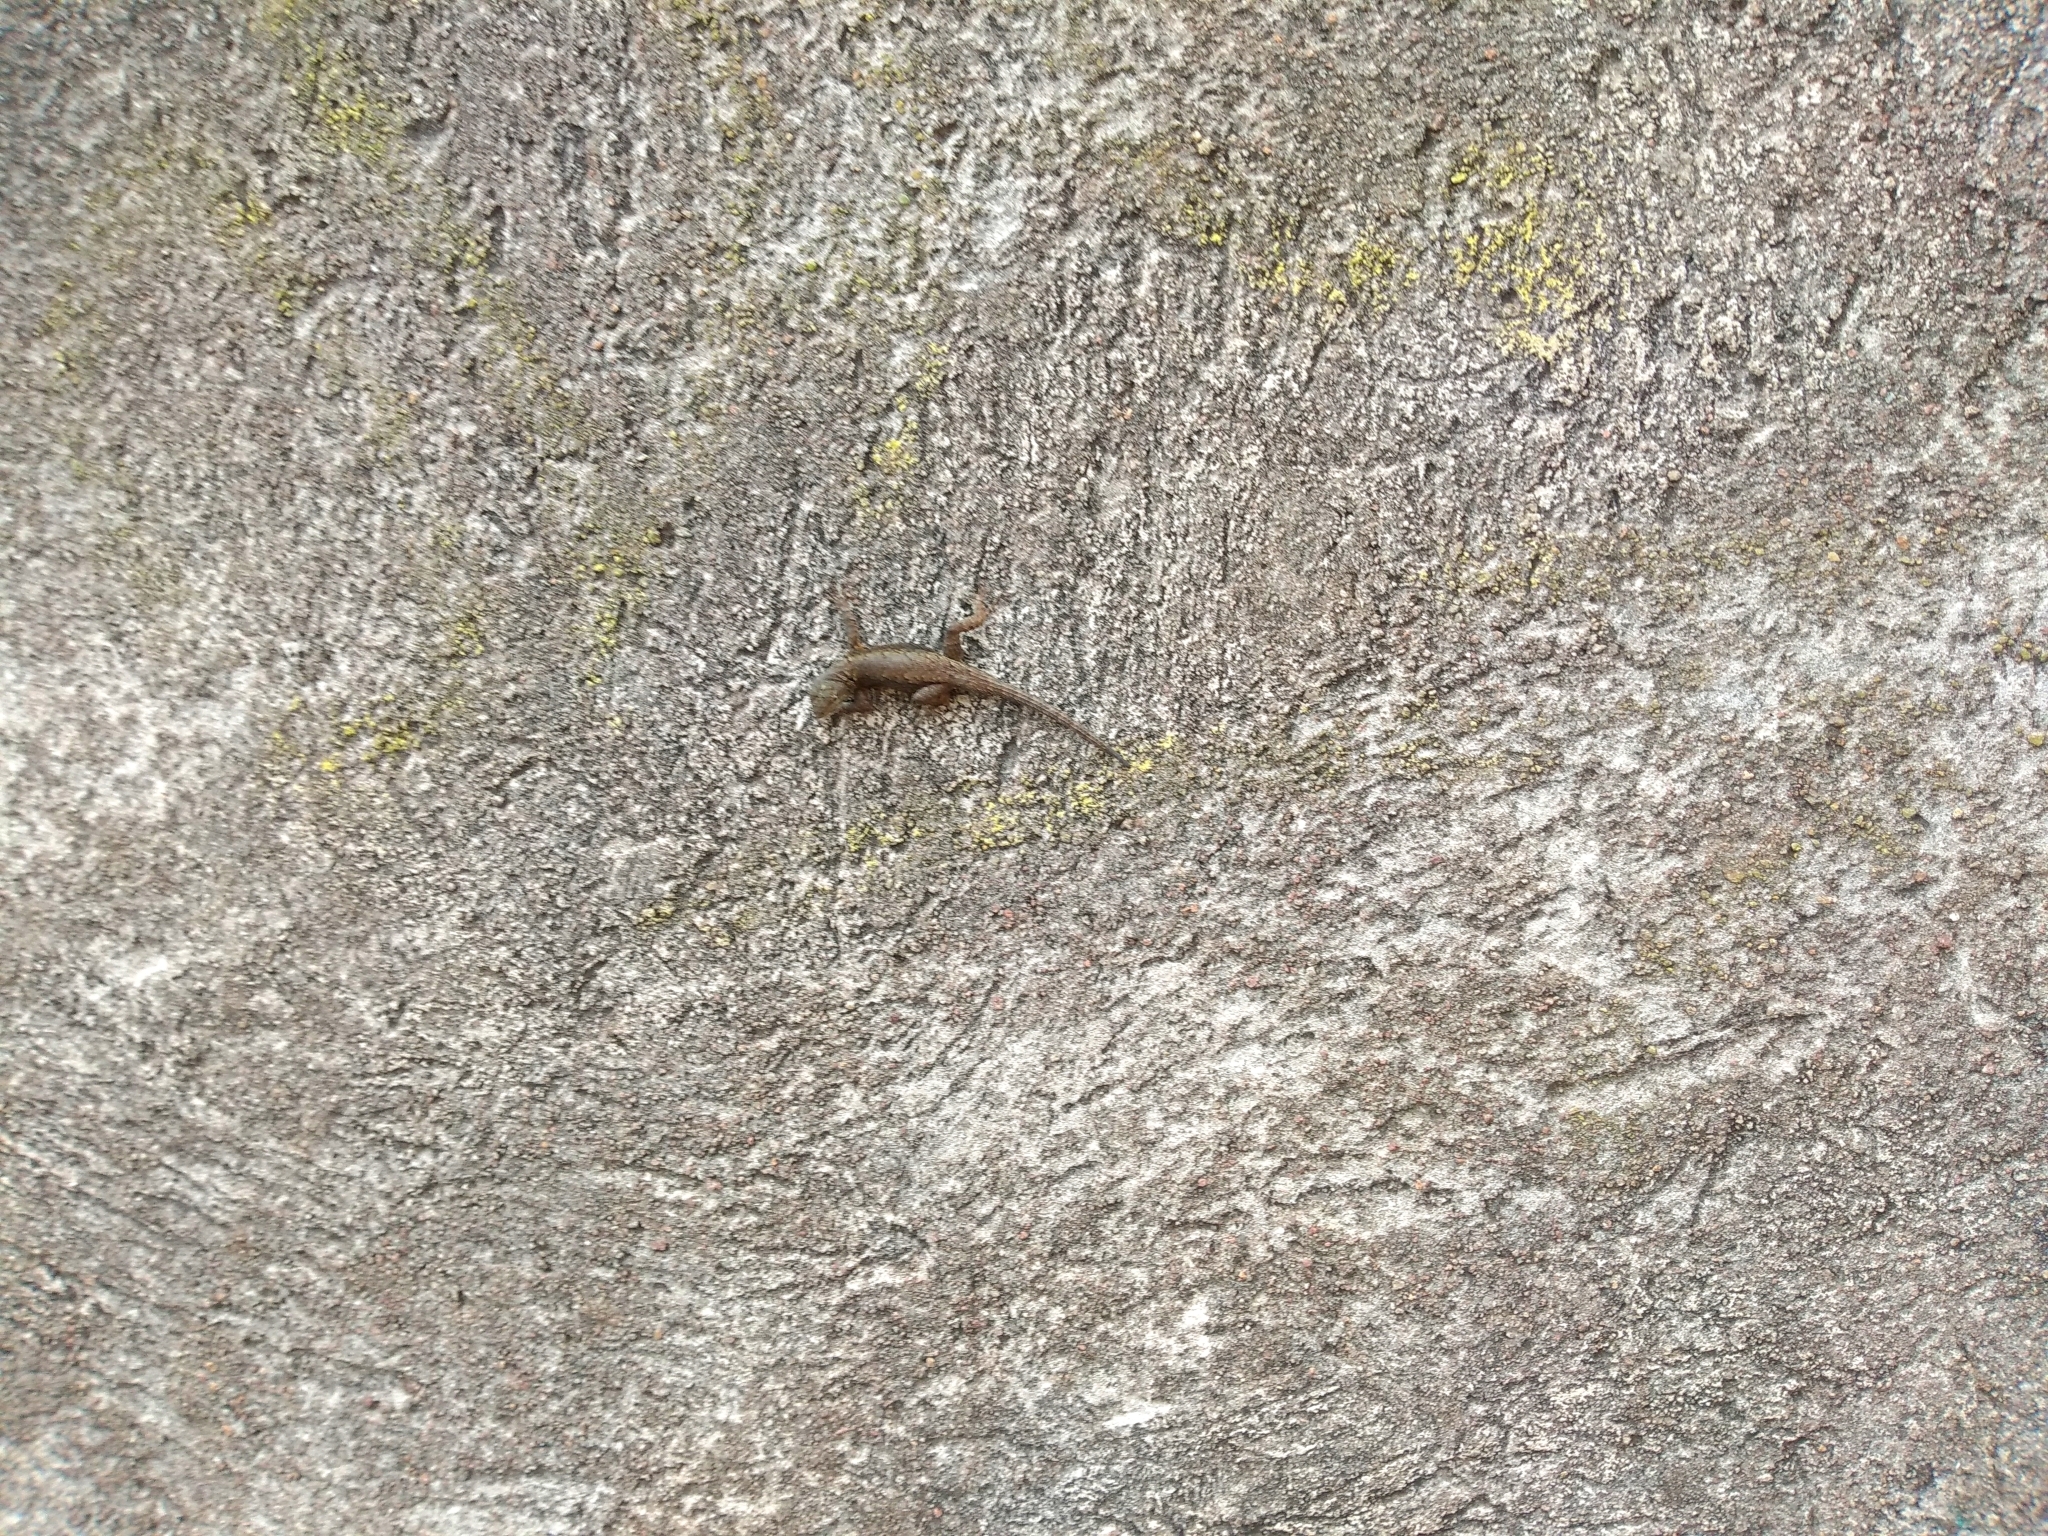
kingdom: Animalia
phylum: Chordata
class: Squamata
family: Phrynosomatidae
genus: Sceloporus
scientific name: Sceloporus grammicus
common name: Mesquite lizard
